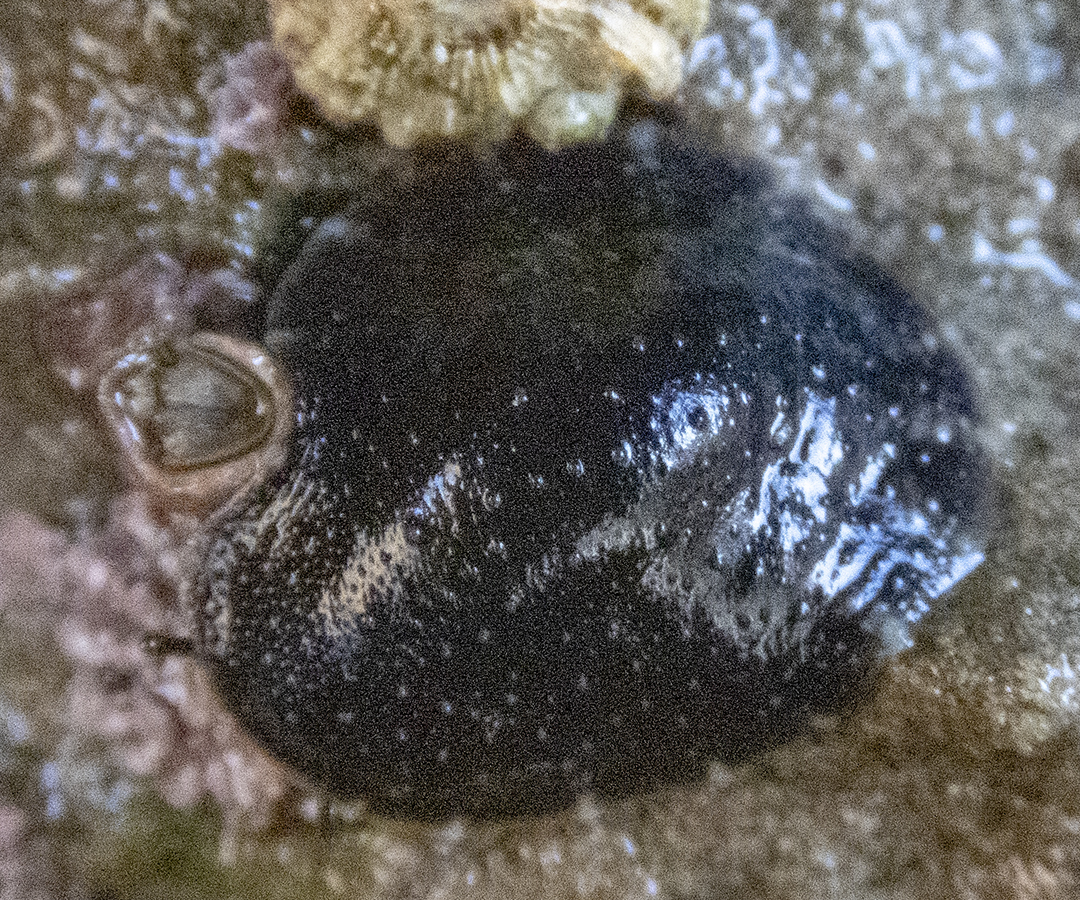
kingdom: Animalia
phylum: Mollusca
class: Gastropoda
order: Systellommatophora
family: Onchidiidae
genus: Onchidella
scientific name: Onchidella nigricans
